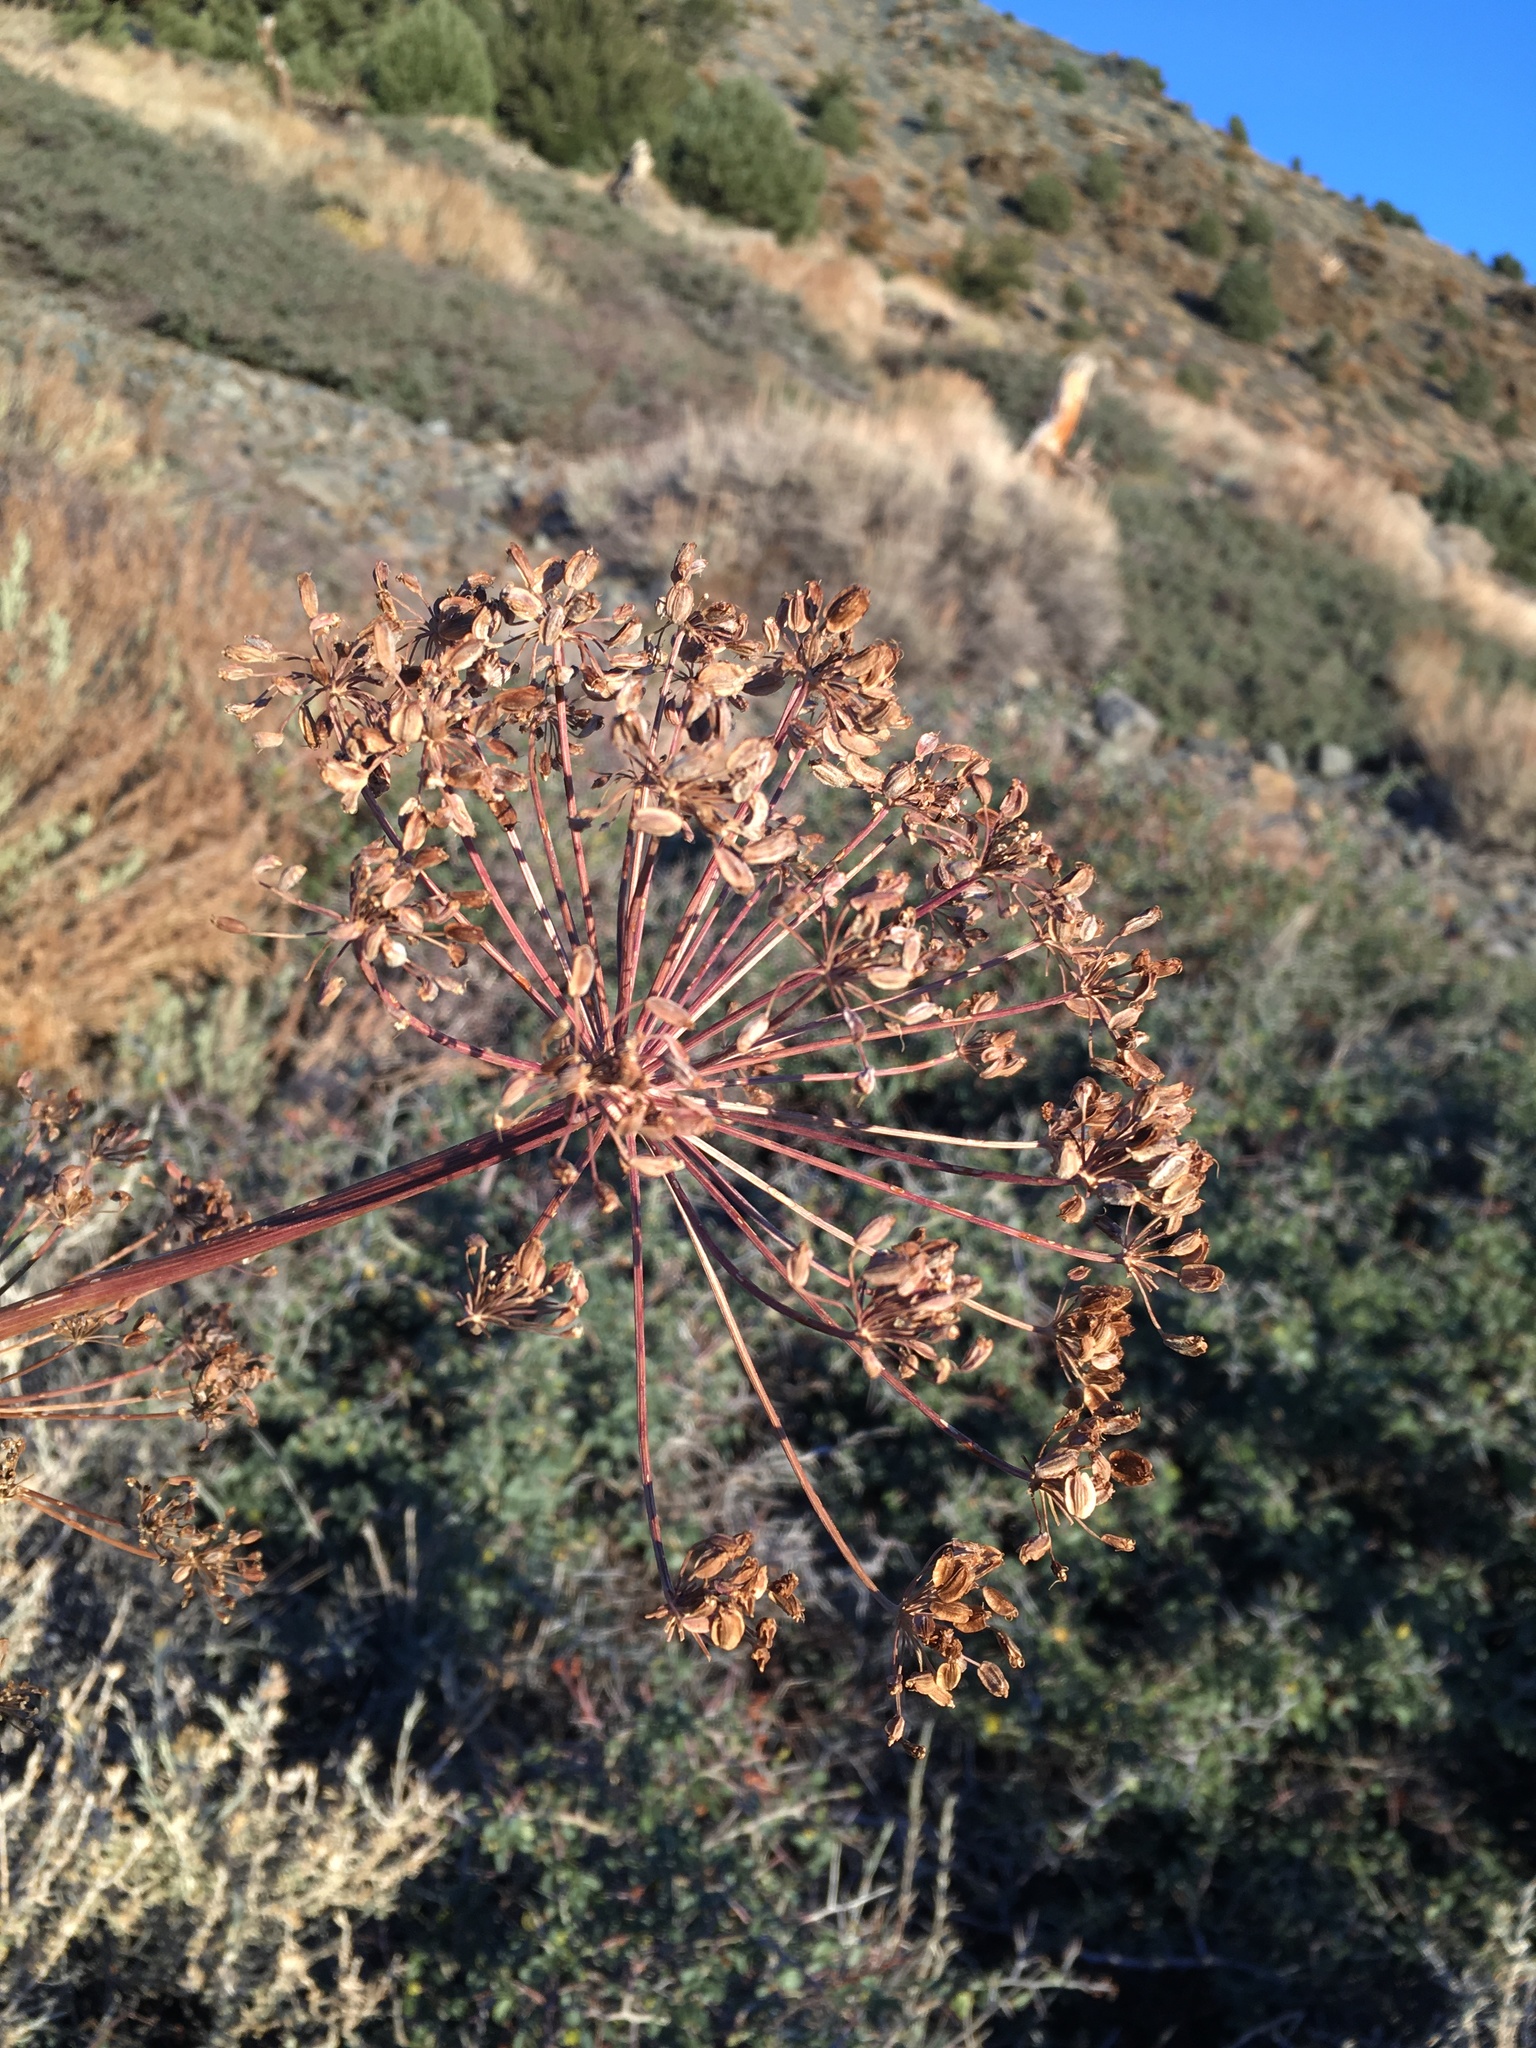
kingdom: Plantae
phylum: Tracheophyta
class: Magnoliopsida
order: Apiales
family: Apiaceae
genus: Angelica
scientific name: Angelica lineariloba
